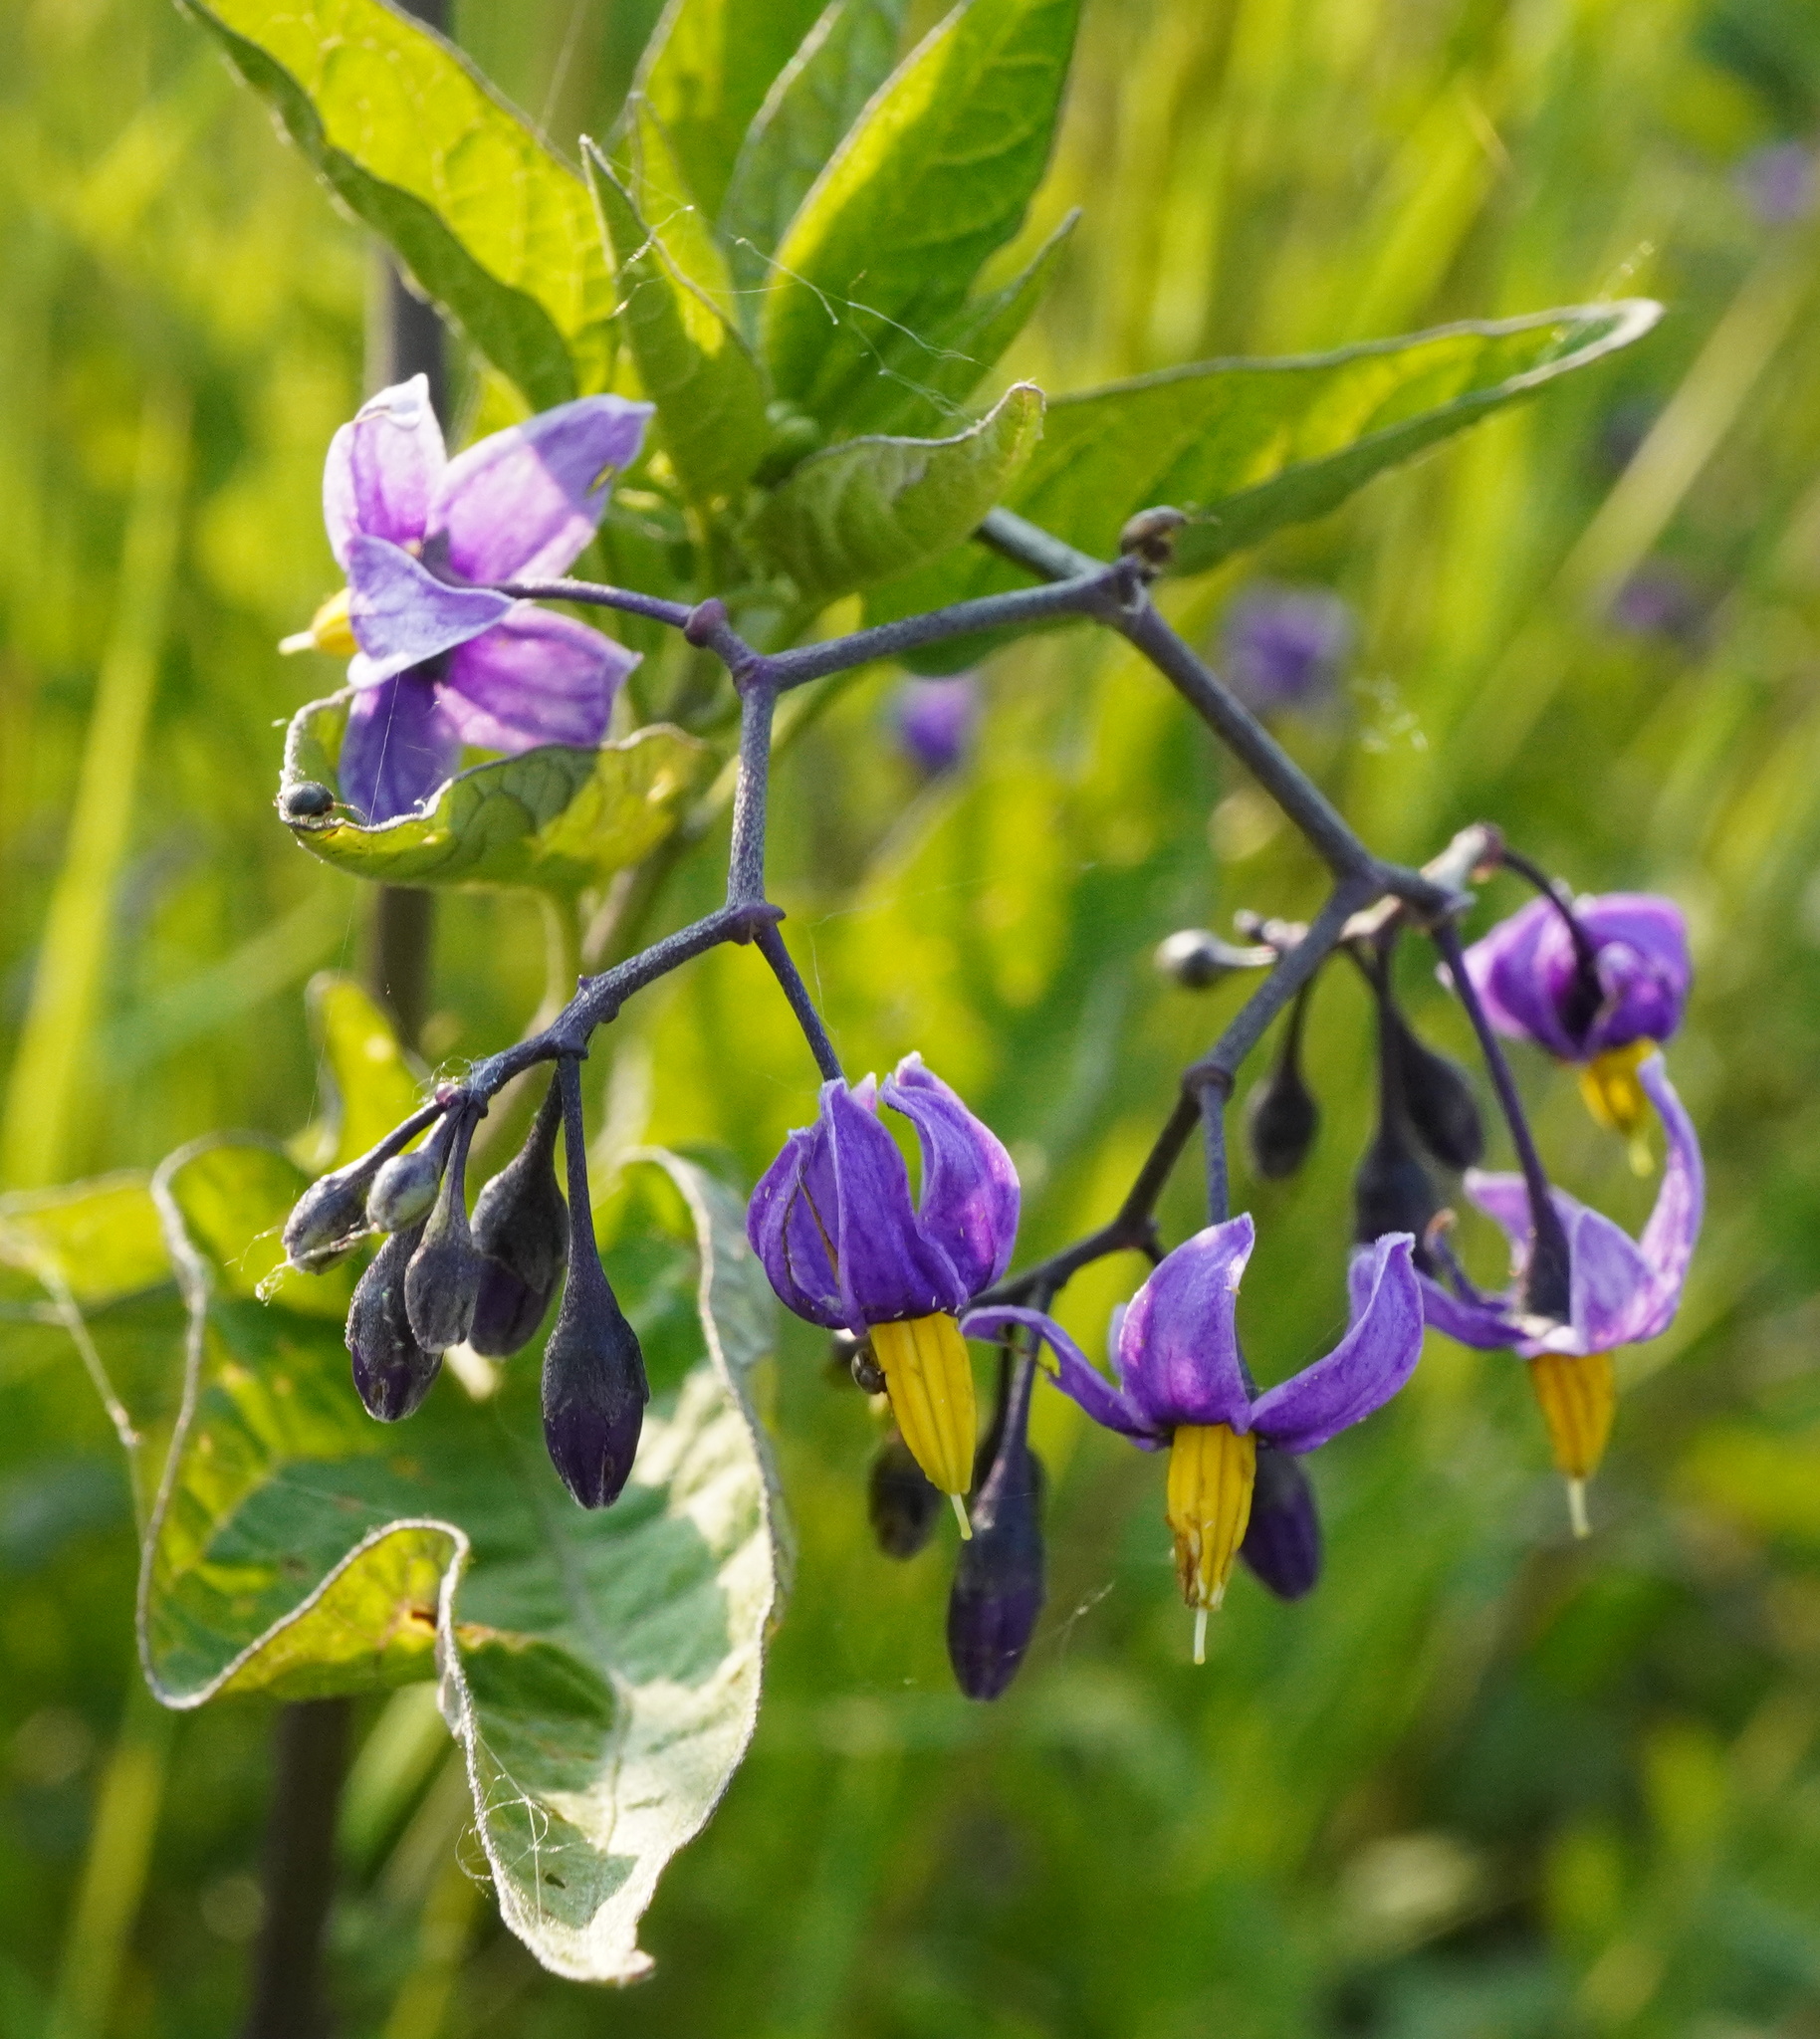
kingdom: Plantae
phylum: Tracheophyta
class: Magnoliopsida
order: Solanales
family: Solanaceae
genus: Solanum
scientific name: Solanum dulcamara
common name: Climbing nightshade
